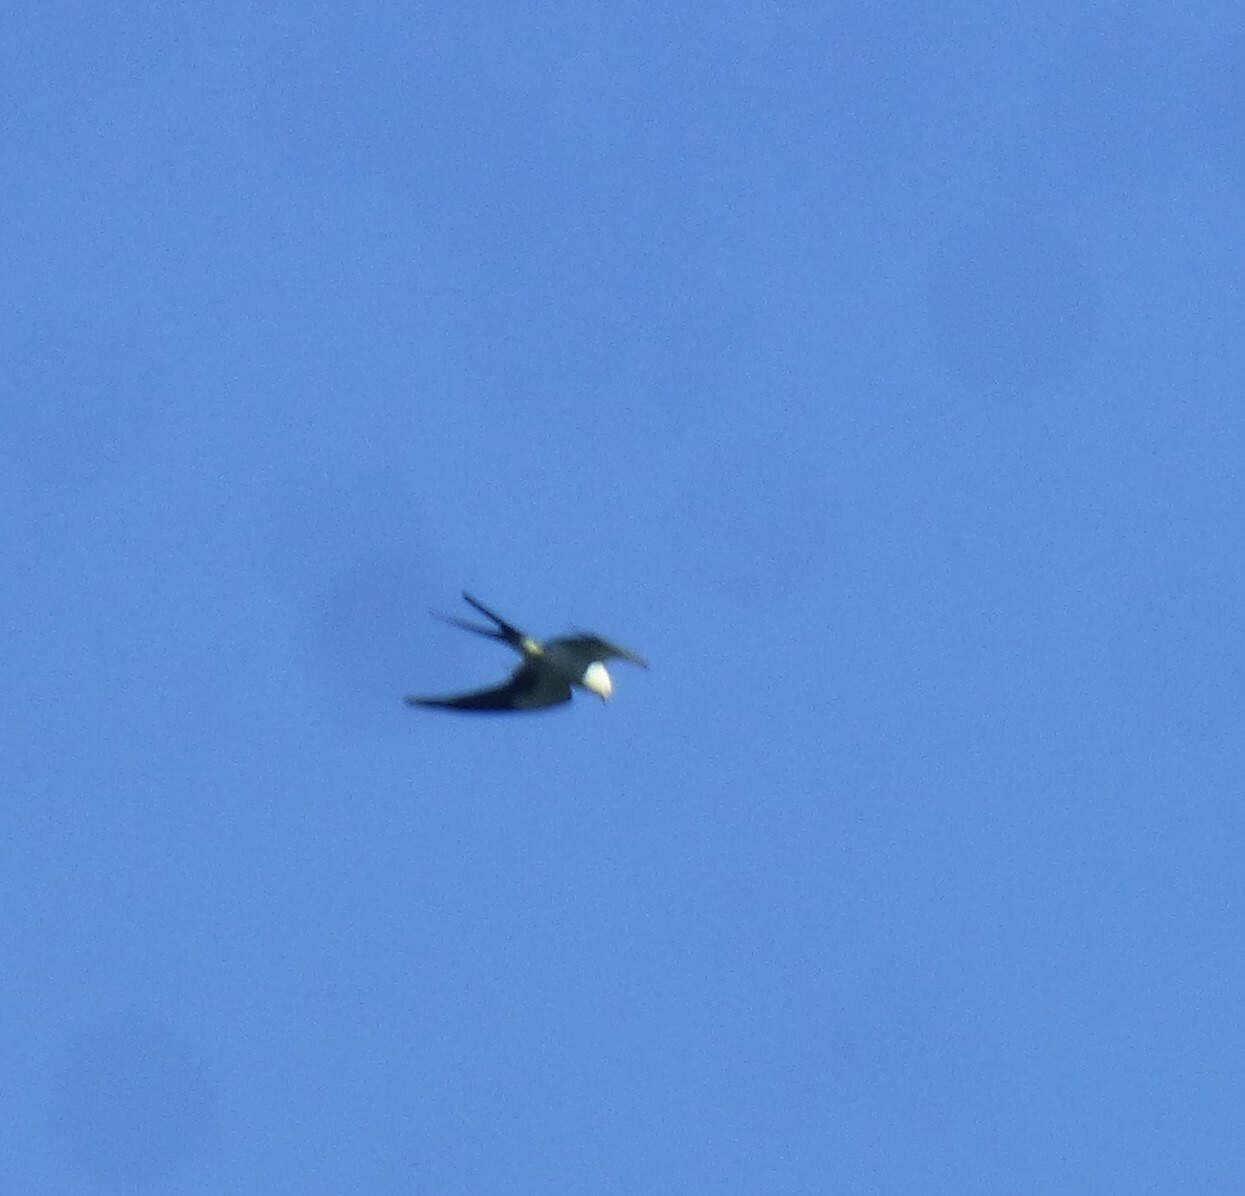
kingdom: Animalia
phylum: Chordata
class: Aves
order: Accipitriformes
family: Accipitridae
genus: Elanoides
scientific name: Elanoides forficatus
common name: Swallow-tailed kite
